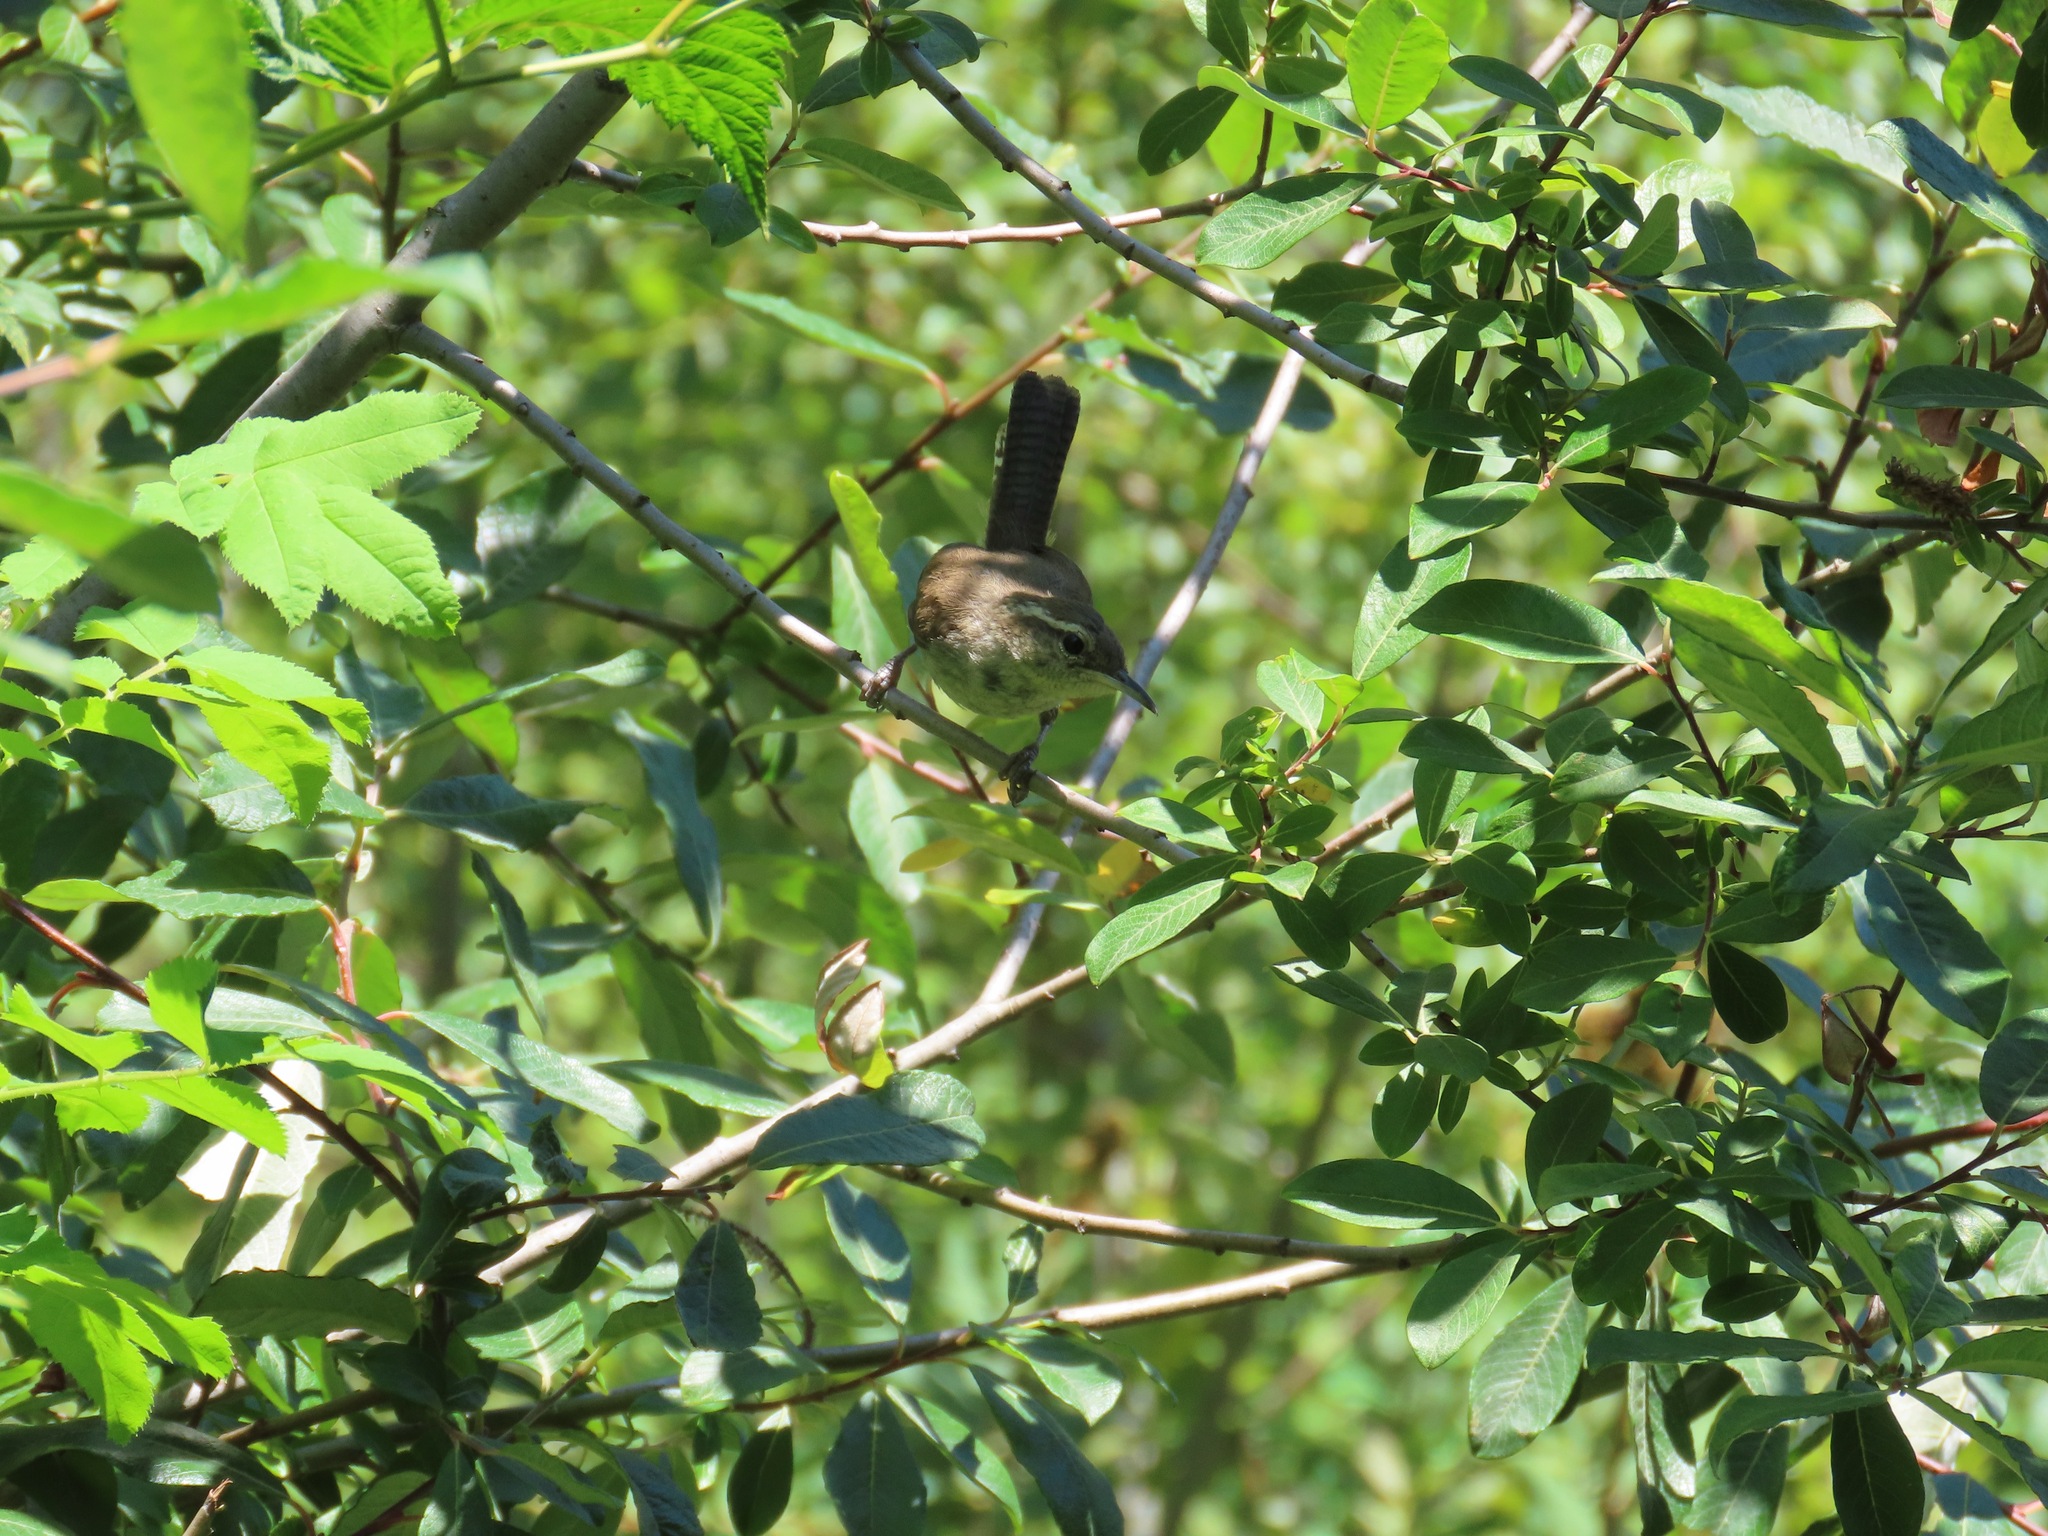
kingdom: Animalia
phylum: Chordata
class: Aves
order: Passeriformes
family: Troglodytidae
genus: Thryomanes
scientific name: Thryomanes bewickii
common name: Bewick's wren
